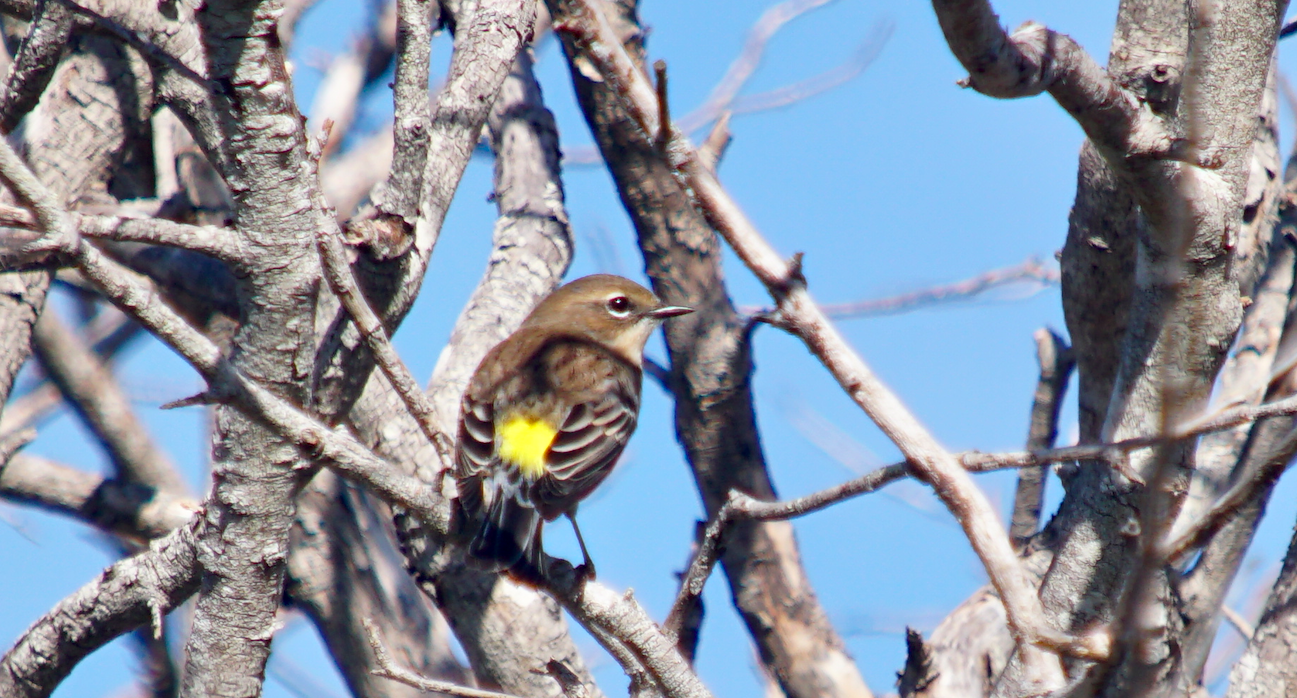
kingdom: Animalia
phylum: Chordata
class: Aves
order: Passeriformes
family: Parulidae
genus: Setophaga
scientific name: Setophaga coronata
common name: Myrtle warbler
